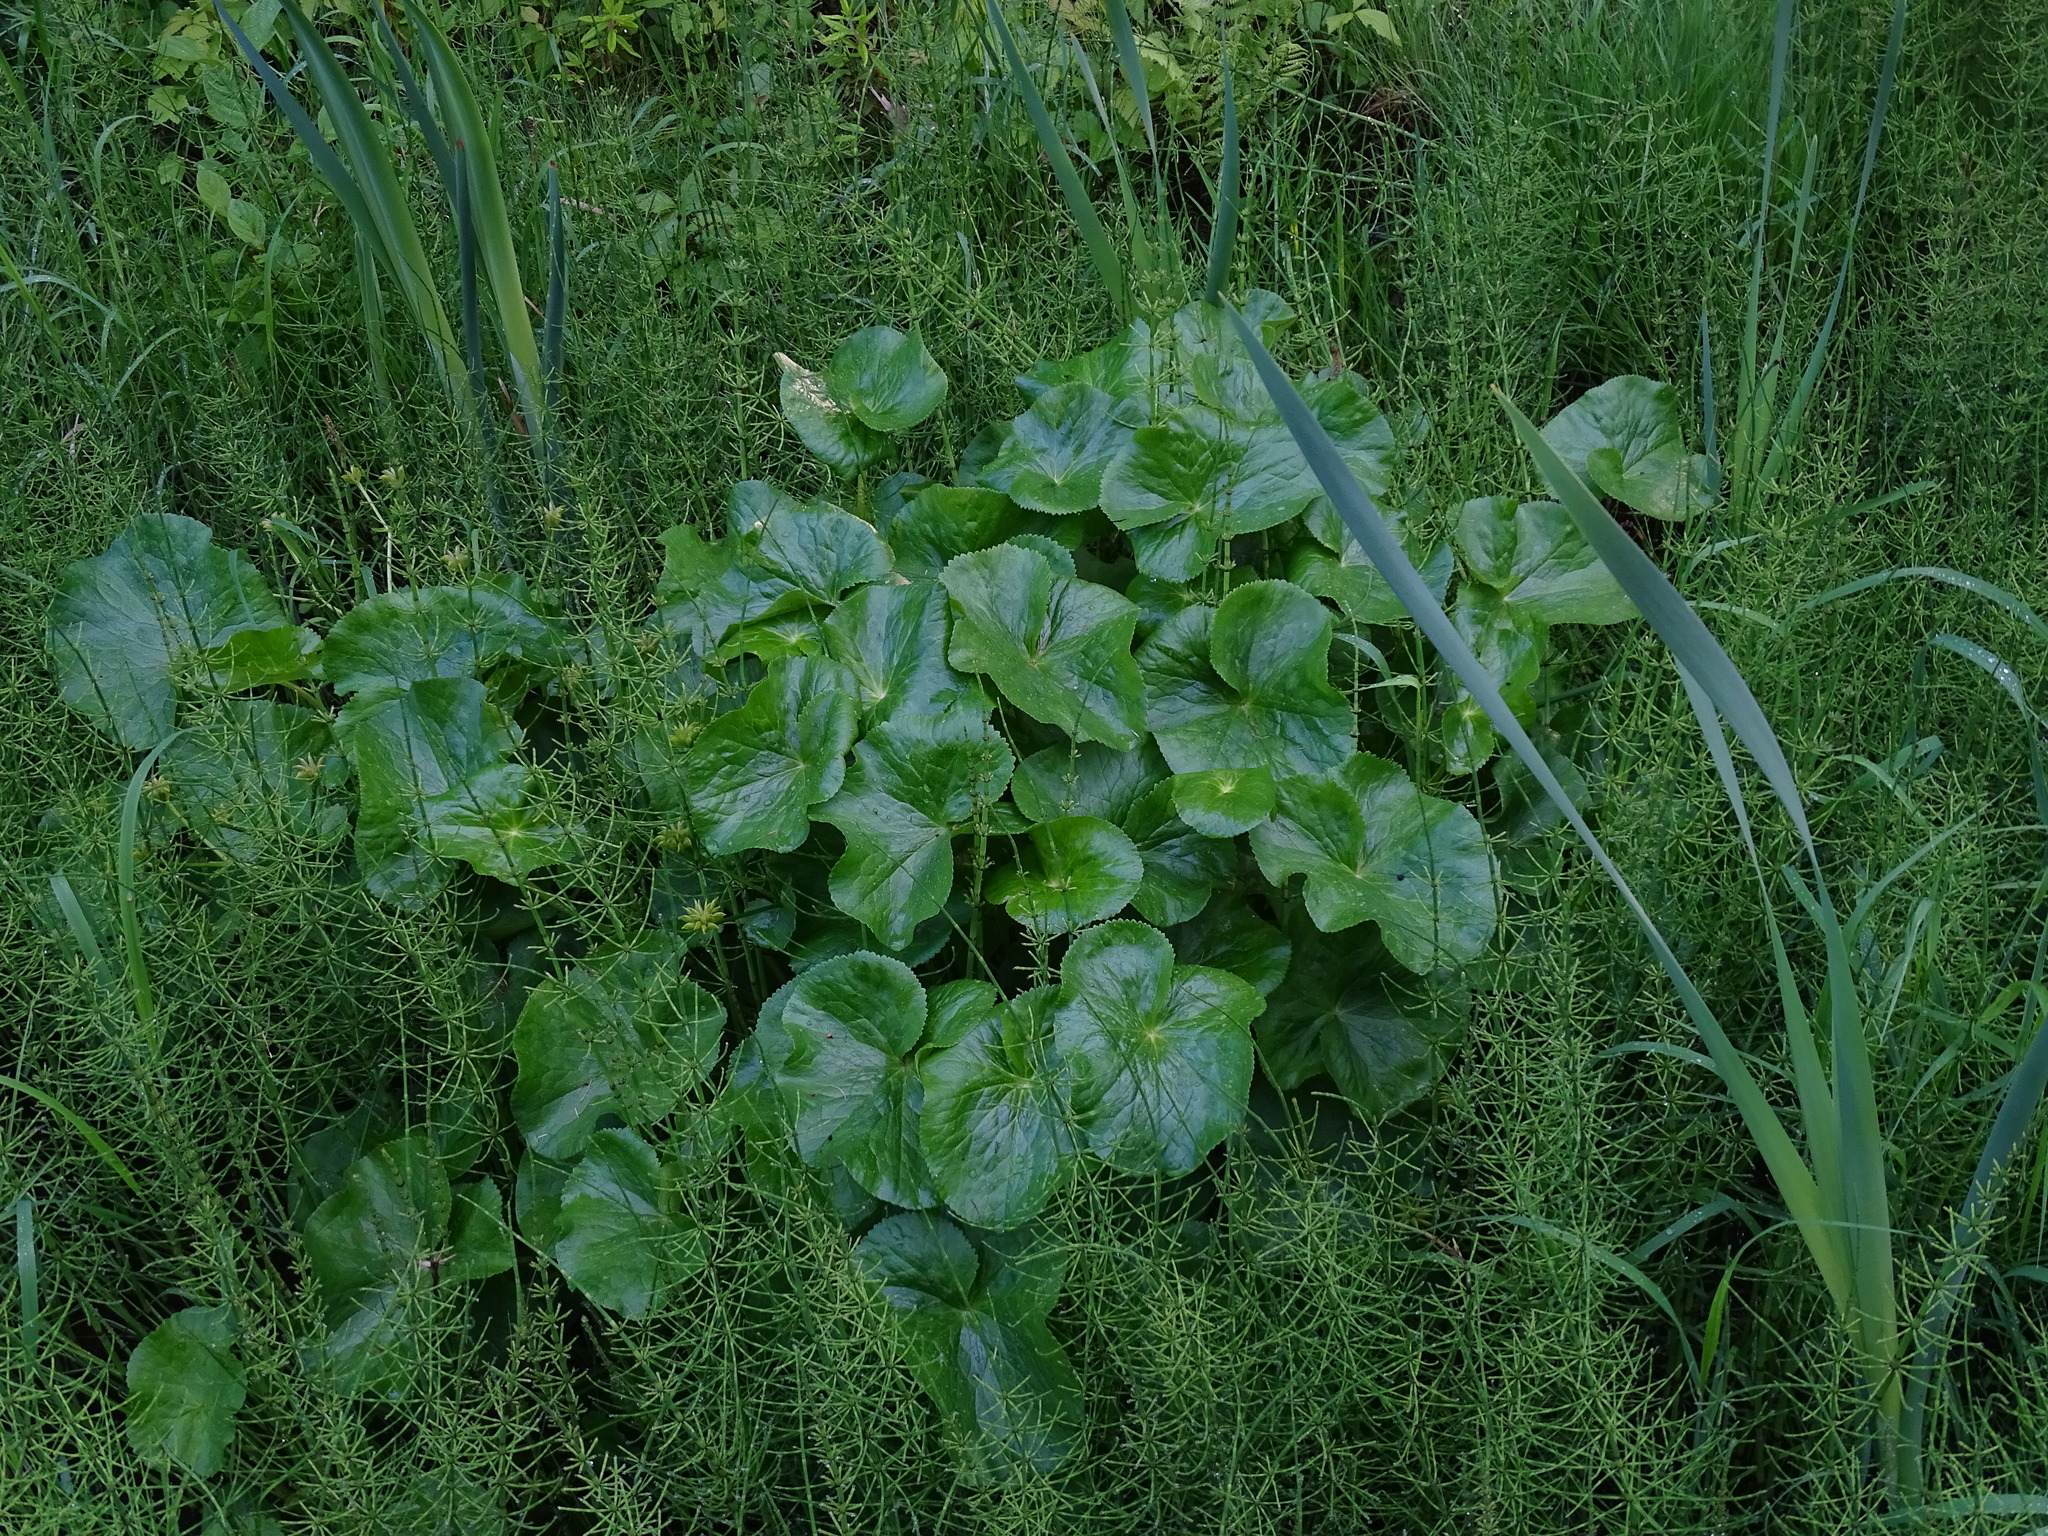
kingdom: Plantae
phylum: Tracheophyta
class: Magnoliopsida
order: Ranunculales
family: Ranunculaceae
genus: Caltha
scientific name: Caltha palustris
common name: Marsh marigold
